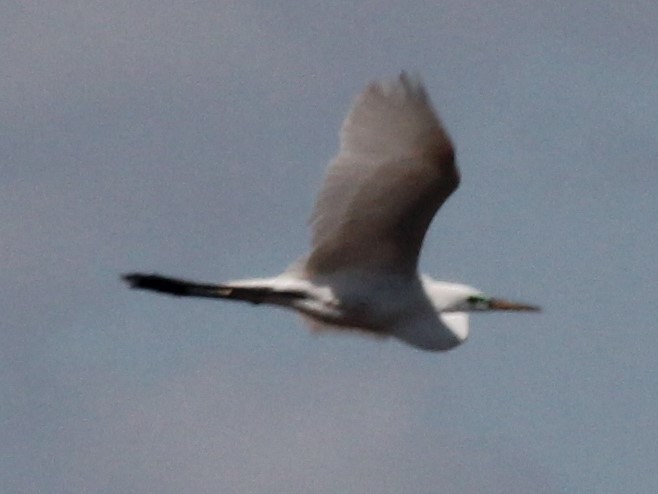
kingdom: Animalia
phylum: Chordata
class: Aves
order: Pelecaniformes
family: Ardeidae
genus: Ardea
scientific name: Ardea alba
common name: Great egret
